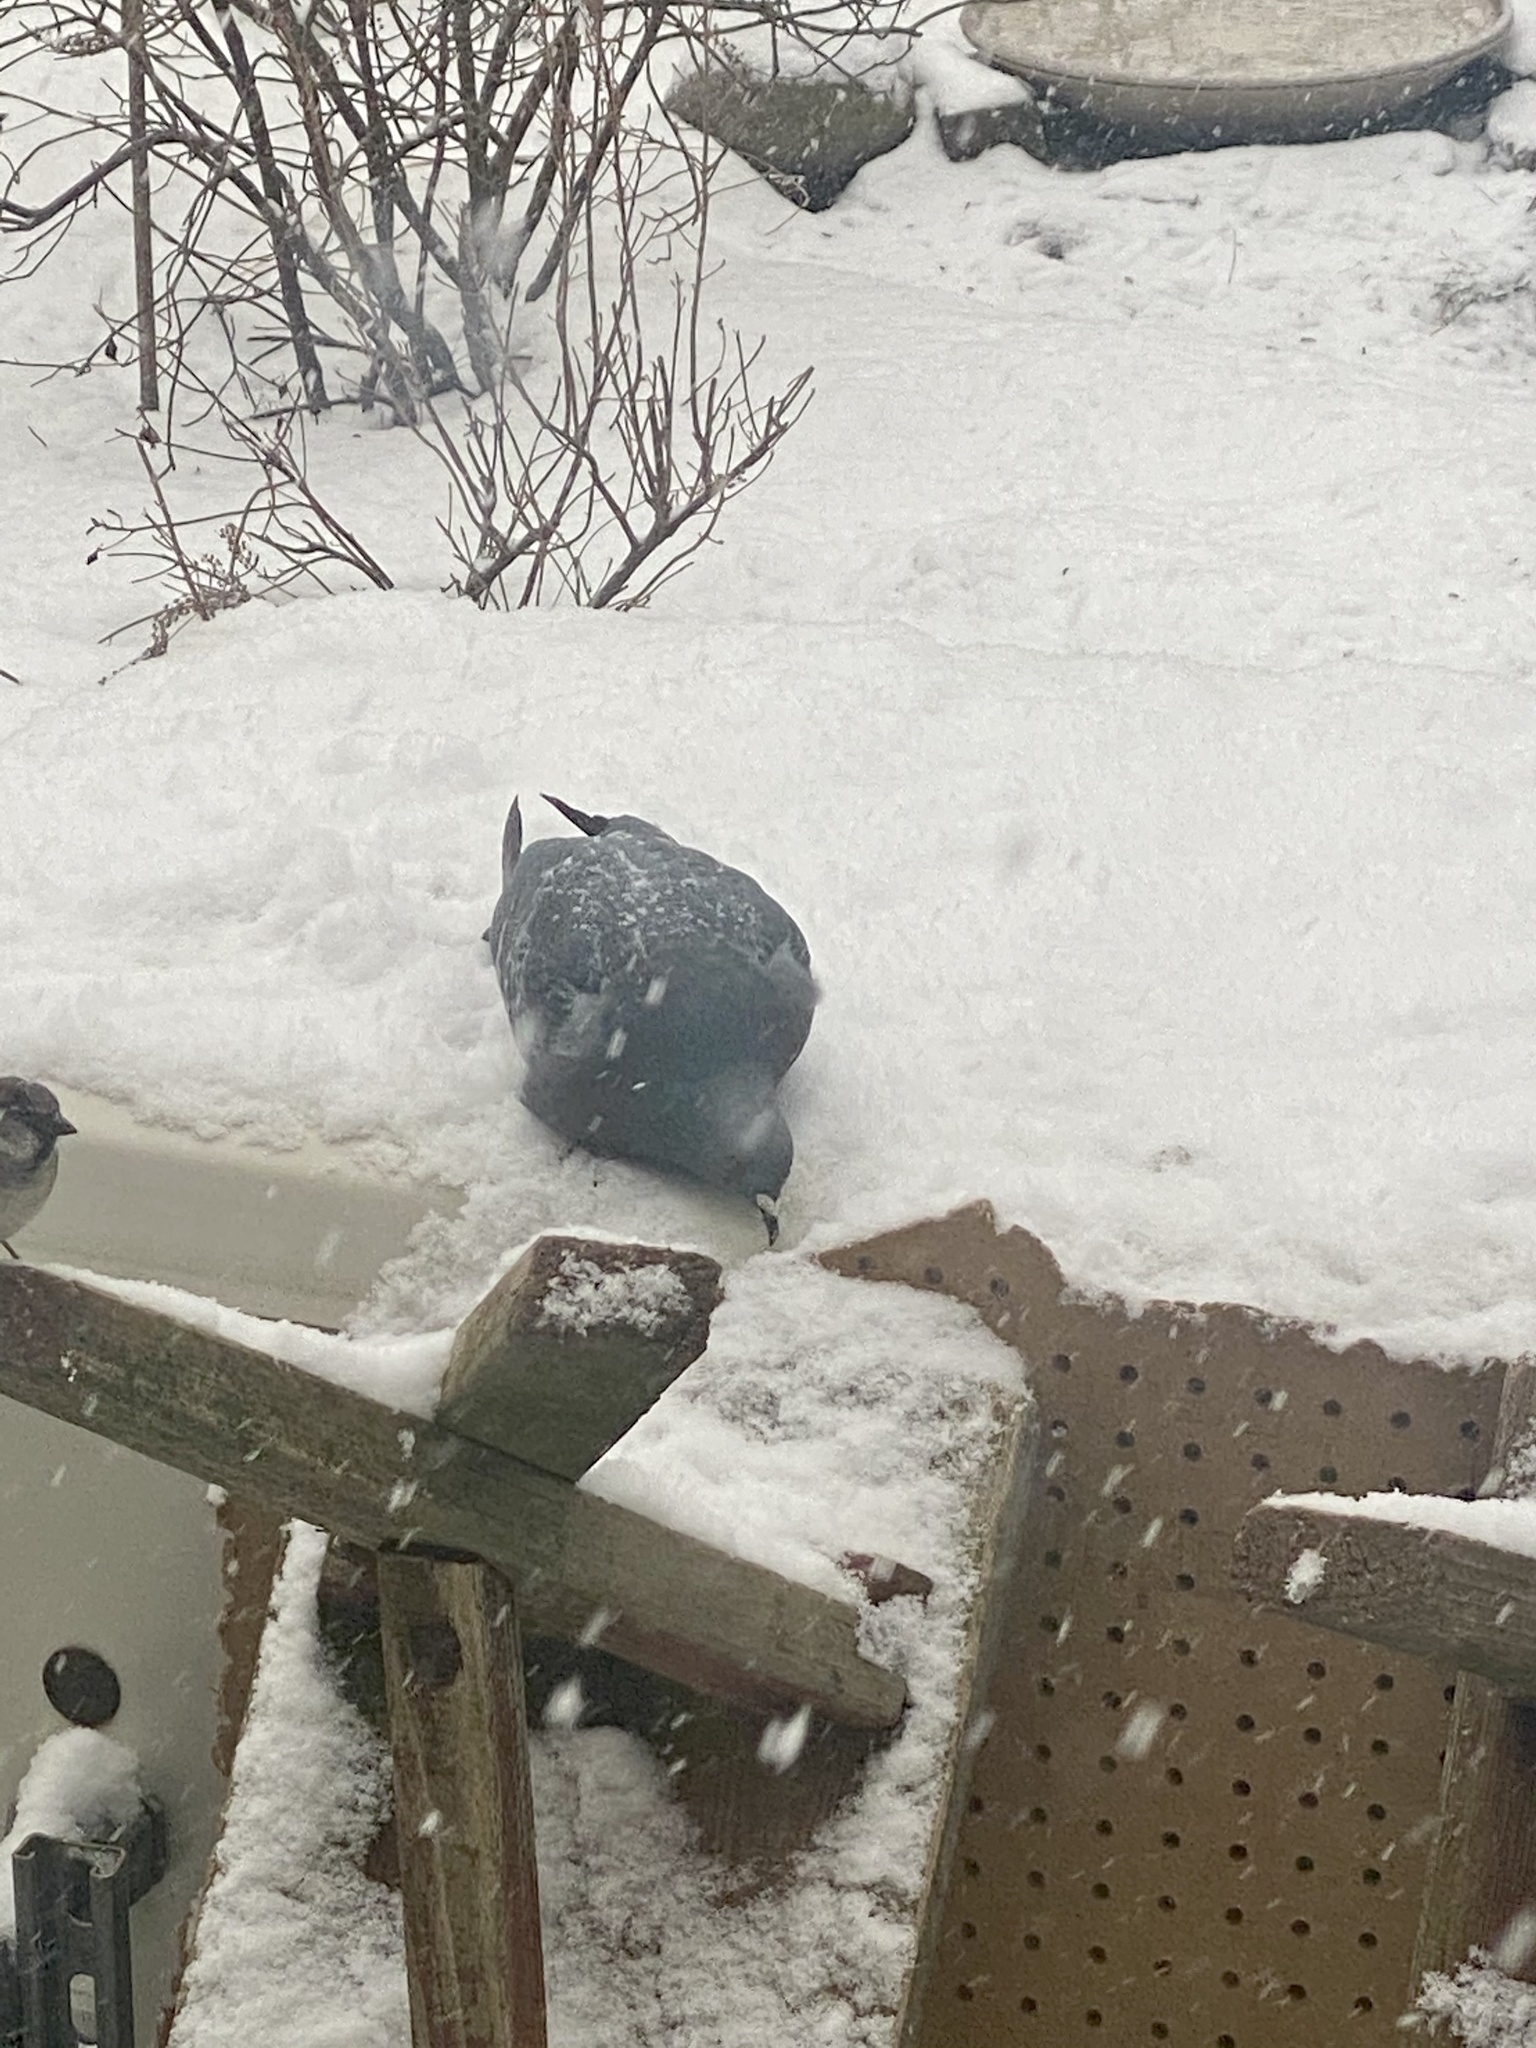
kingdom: Animalia
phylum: Chordata
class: Aves
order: Columbiformes
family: Columbidae
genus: Columba
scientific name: Columba livia
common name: Rock pigeon
